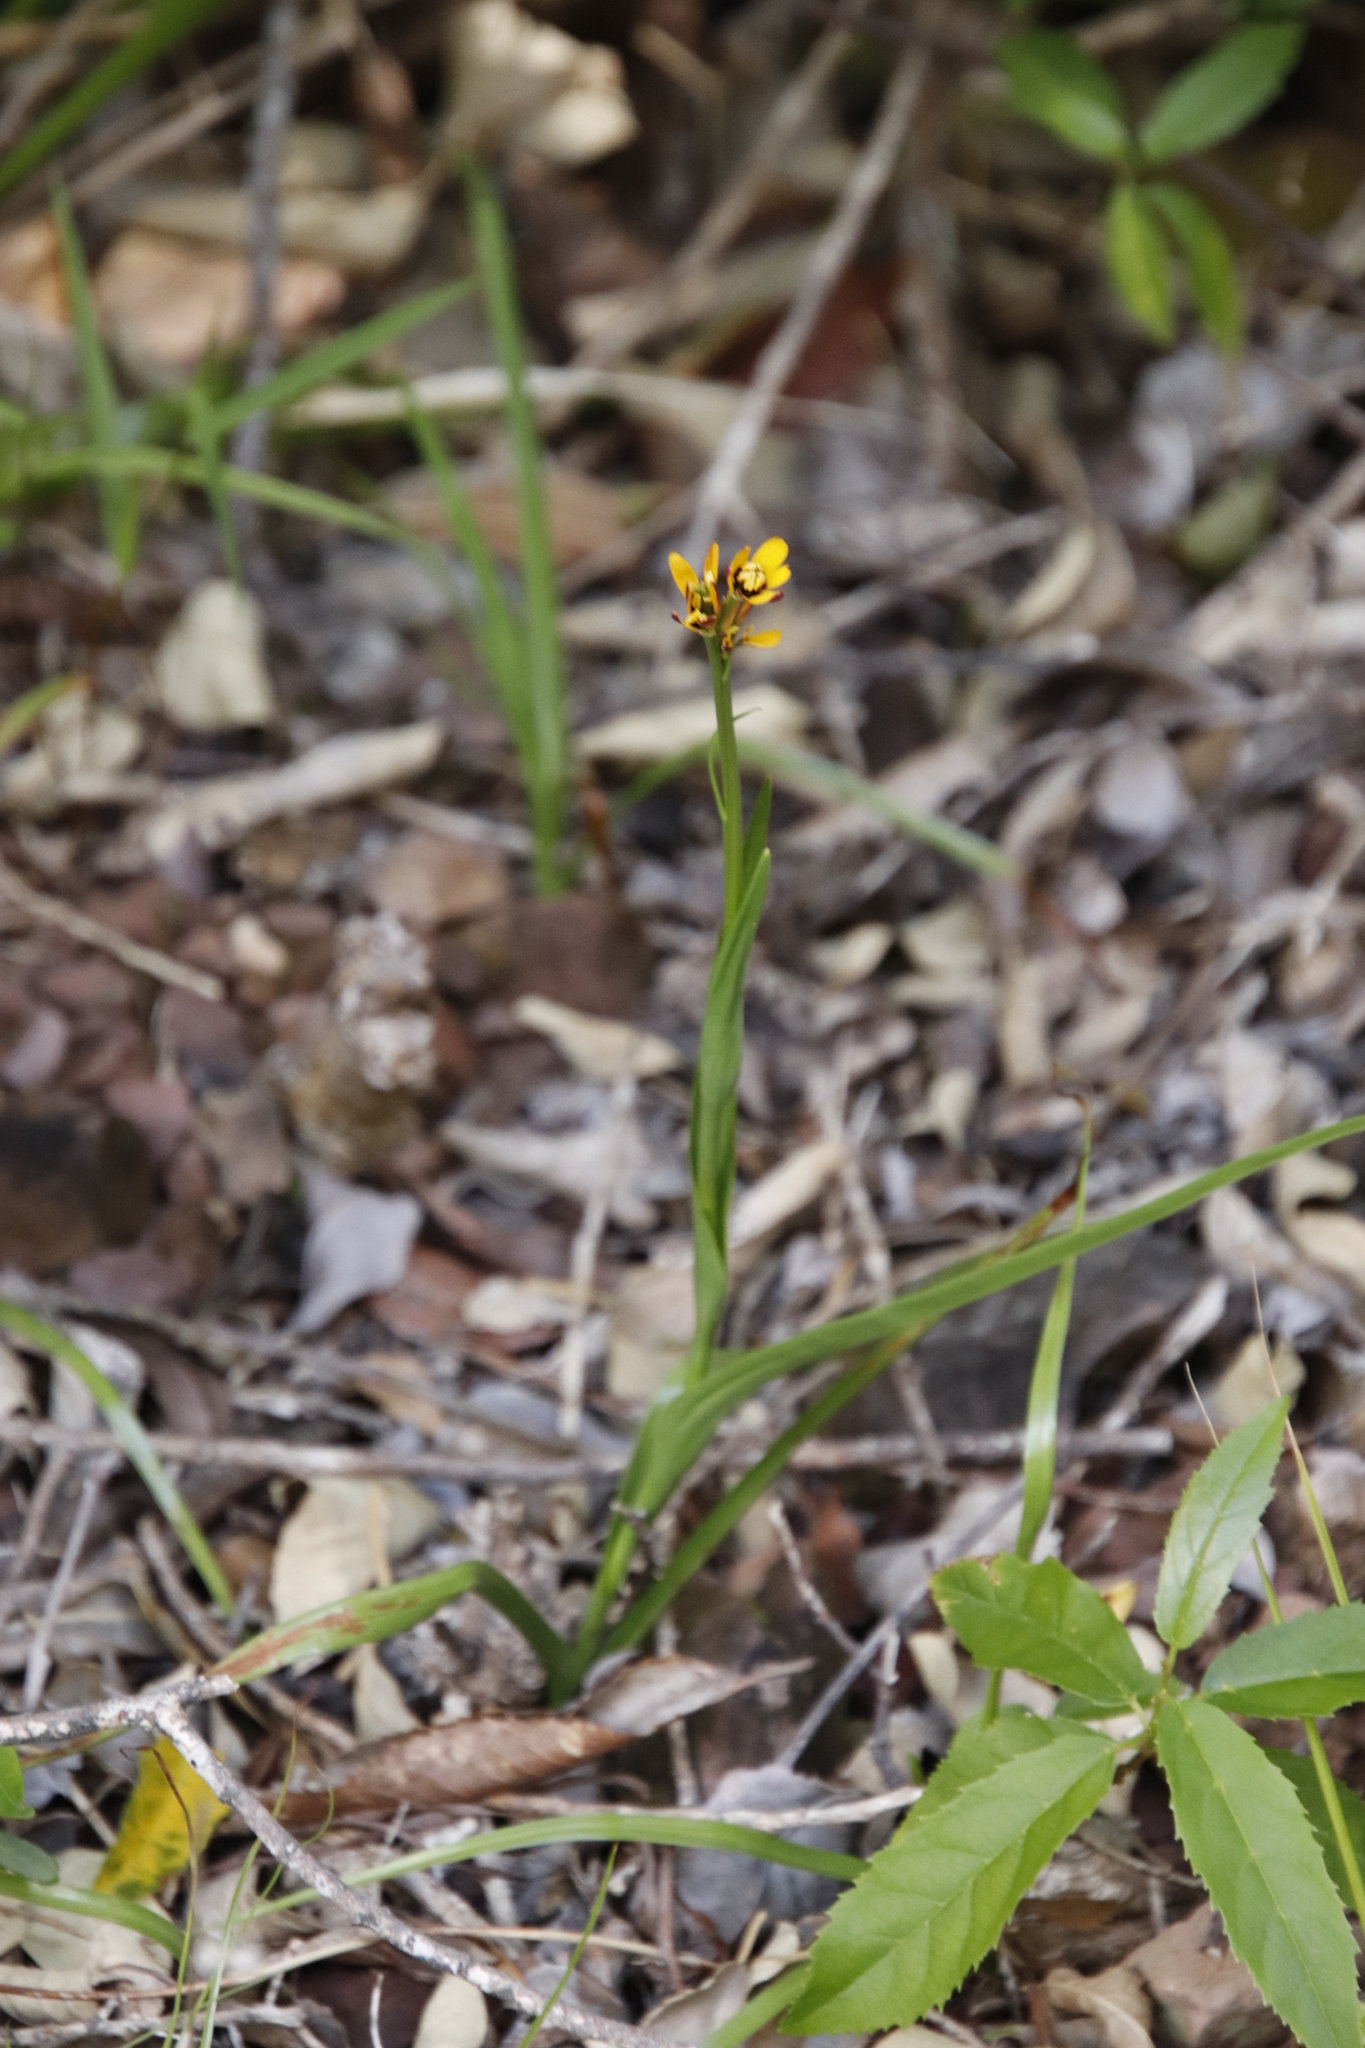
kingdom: Plantae
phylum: Tracheophyta
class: Liliopsida
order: Liliales
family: Colchicaceae
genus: Baeometra
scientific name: Baeometra uniflora
